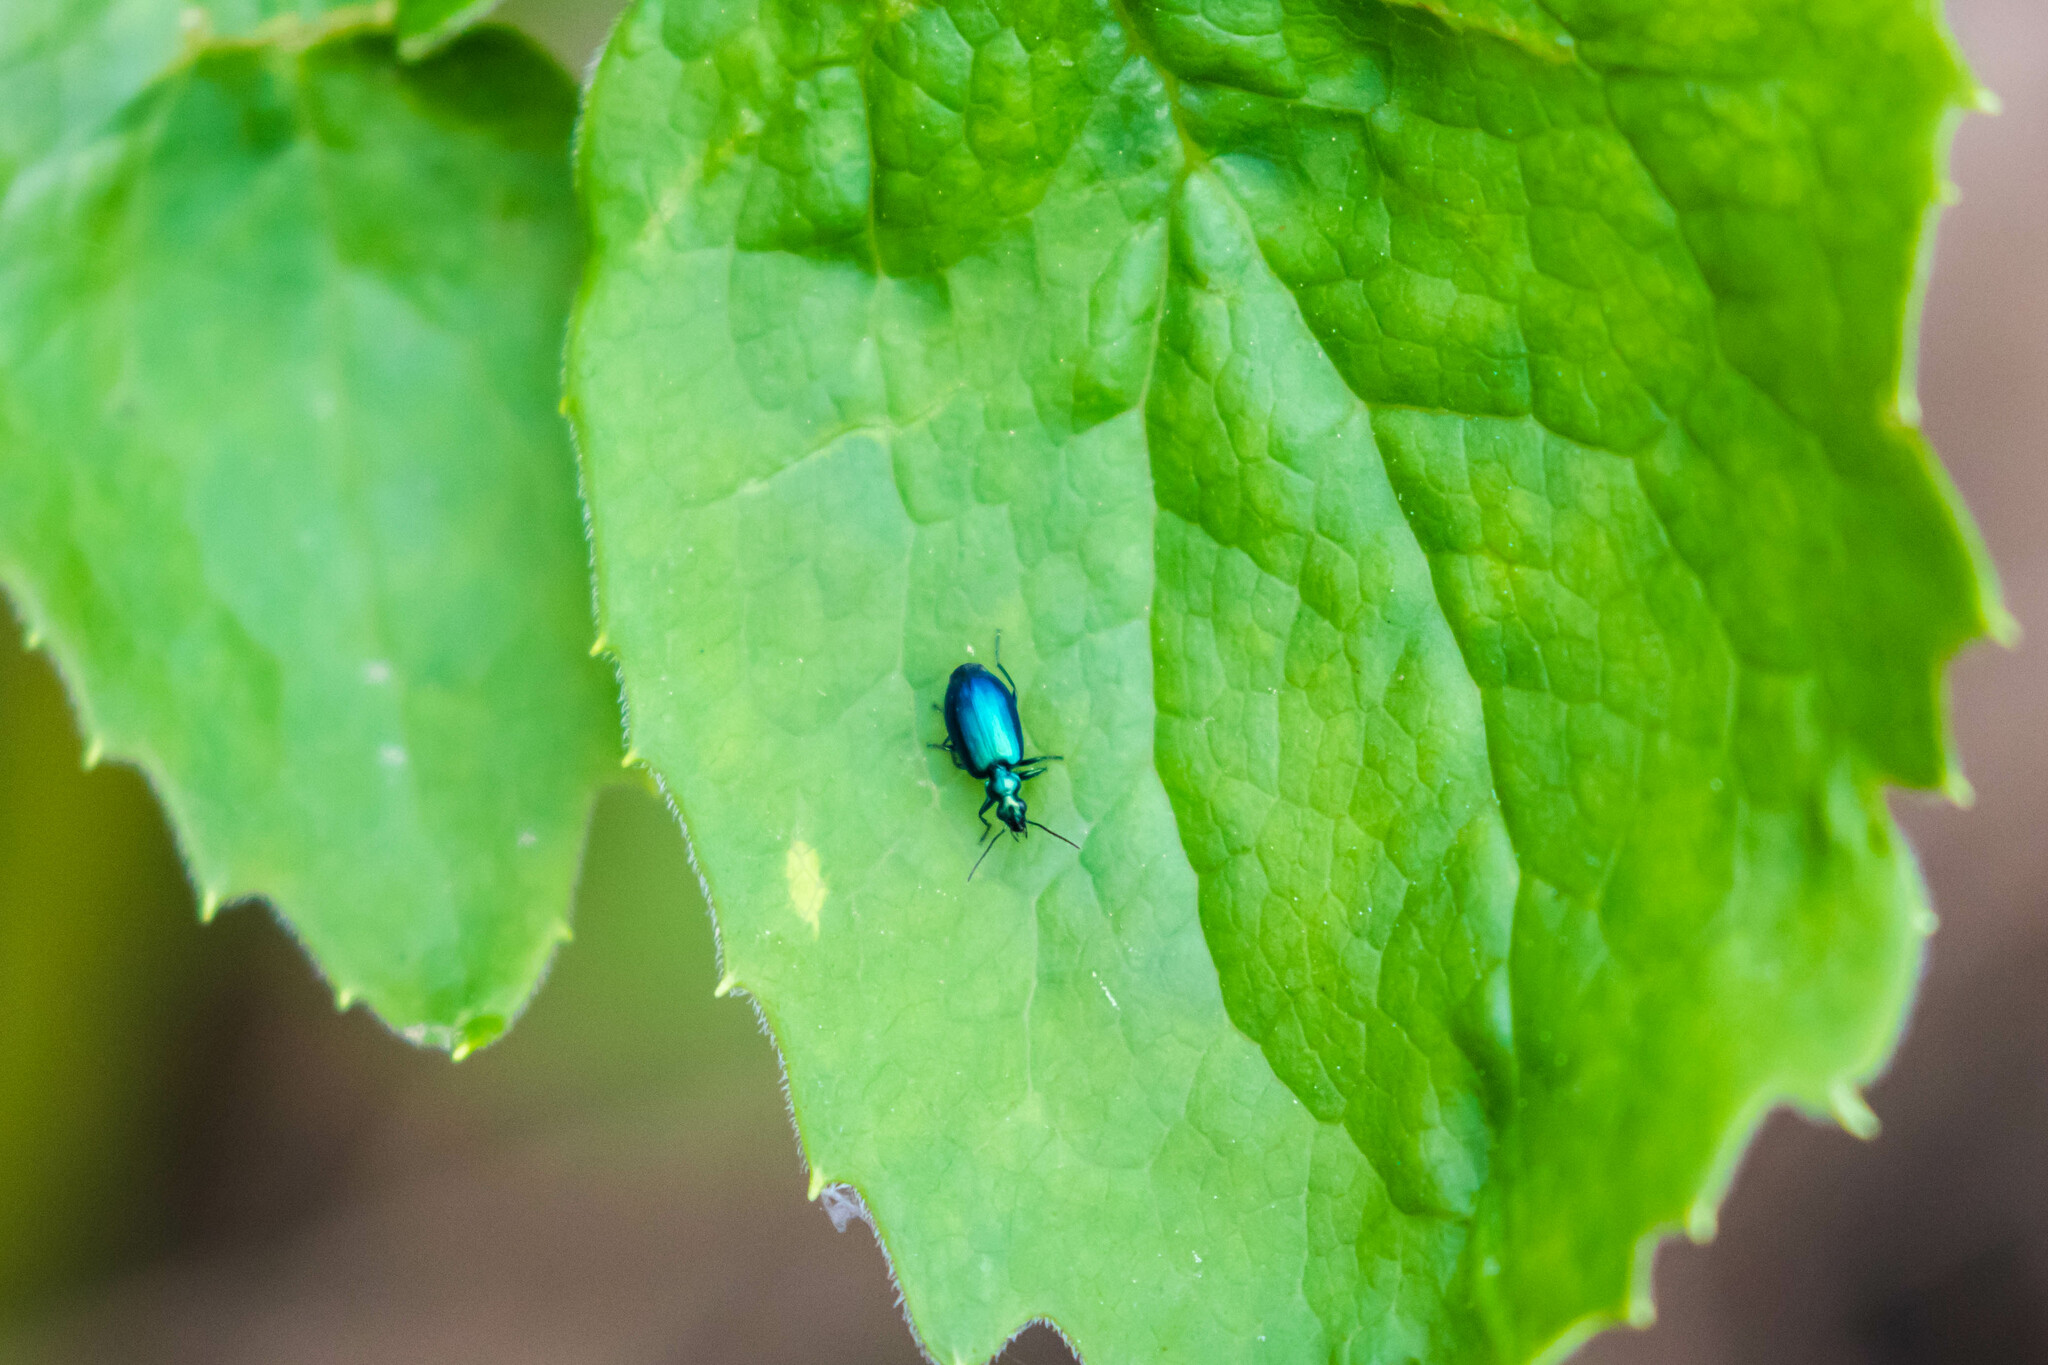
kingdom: Animalia
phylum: Arthropoda
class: Insecta
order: Coleoptera
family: Carabidae
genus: Lebia
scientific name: Lebia viridis
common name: Flower lebia beetle
